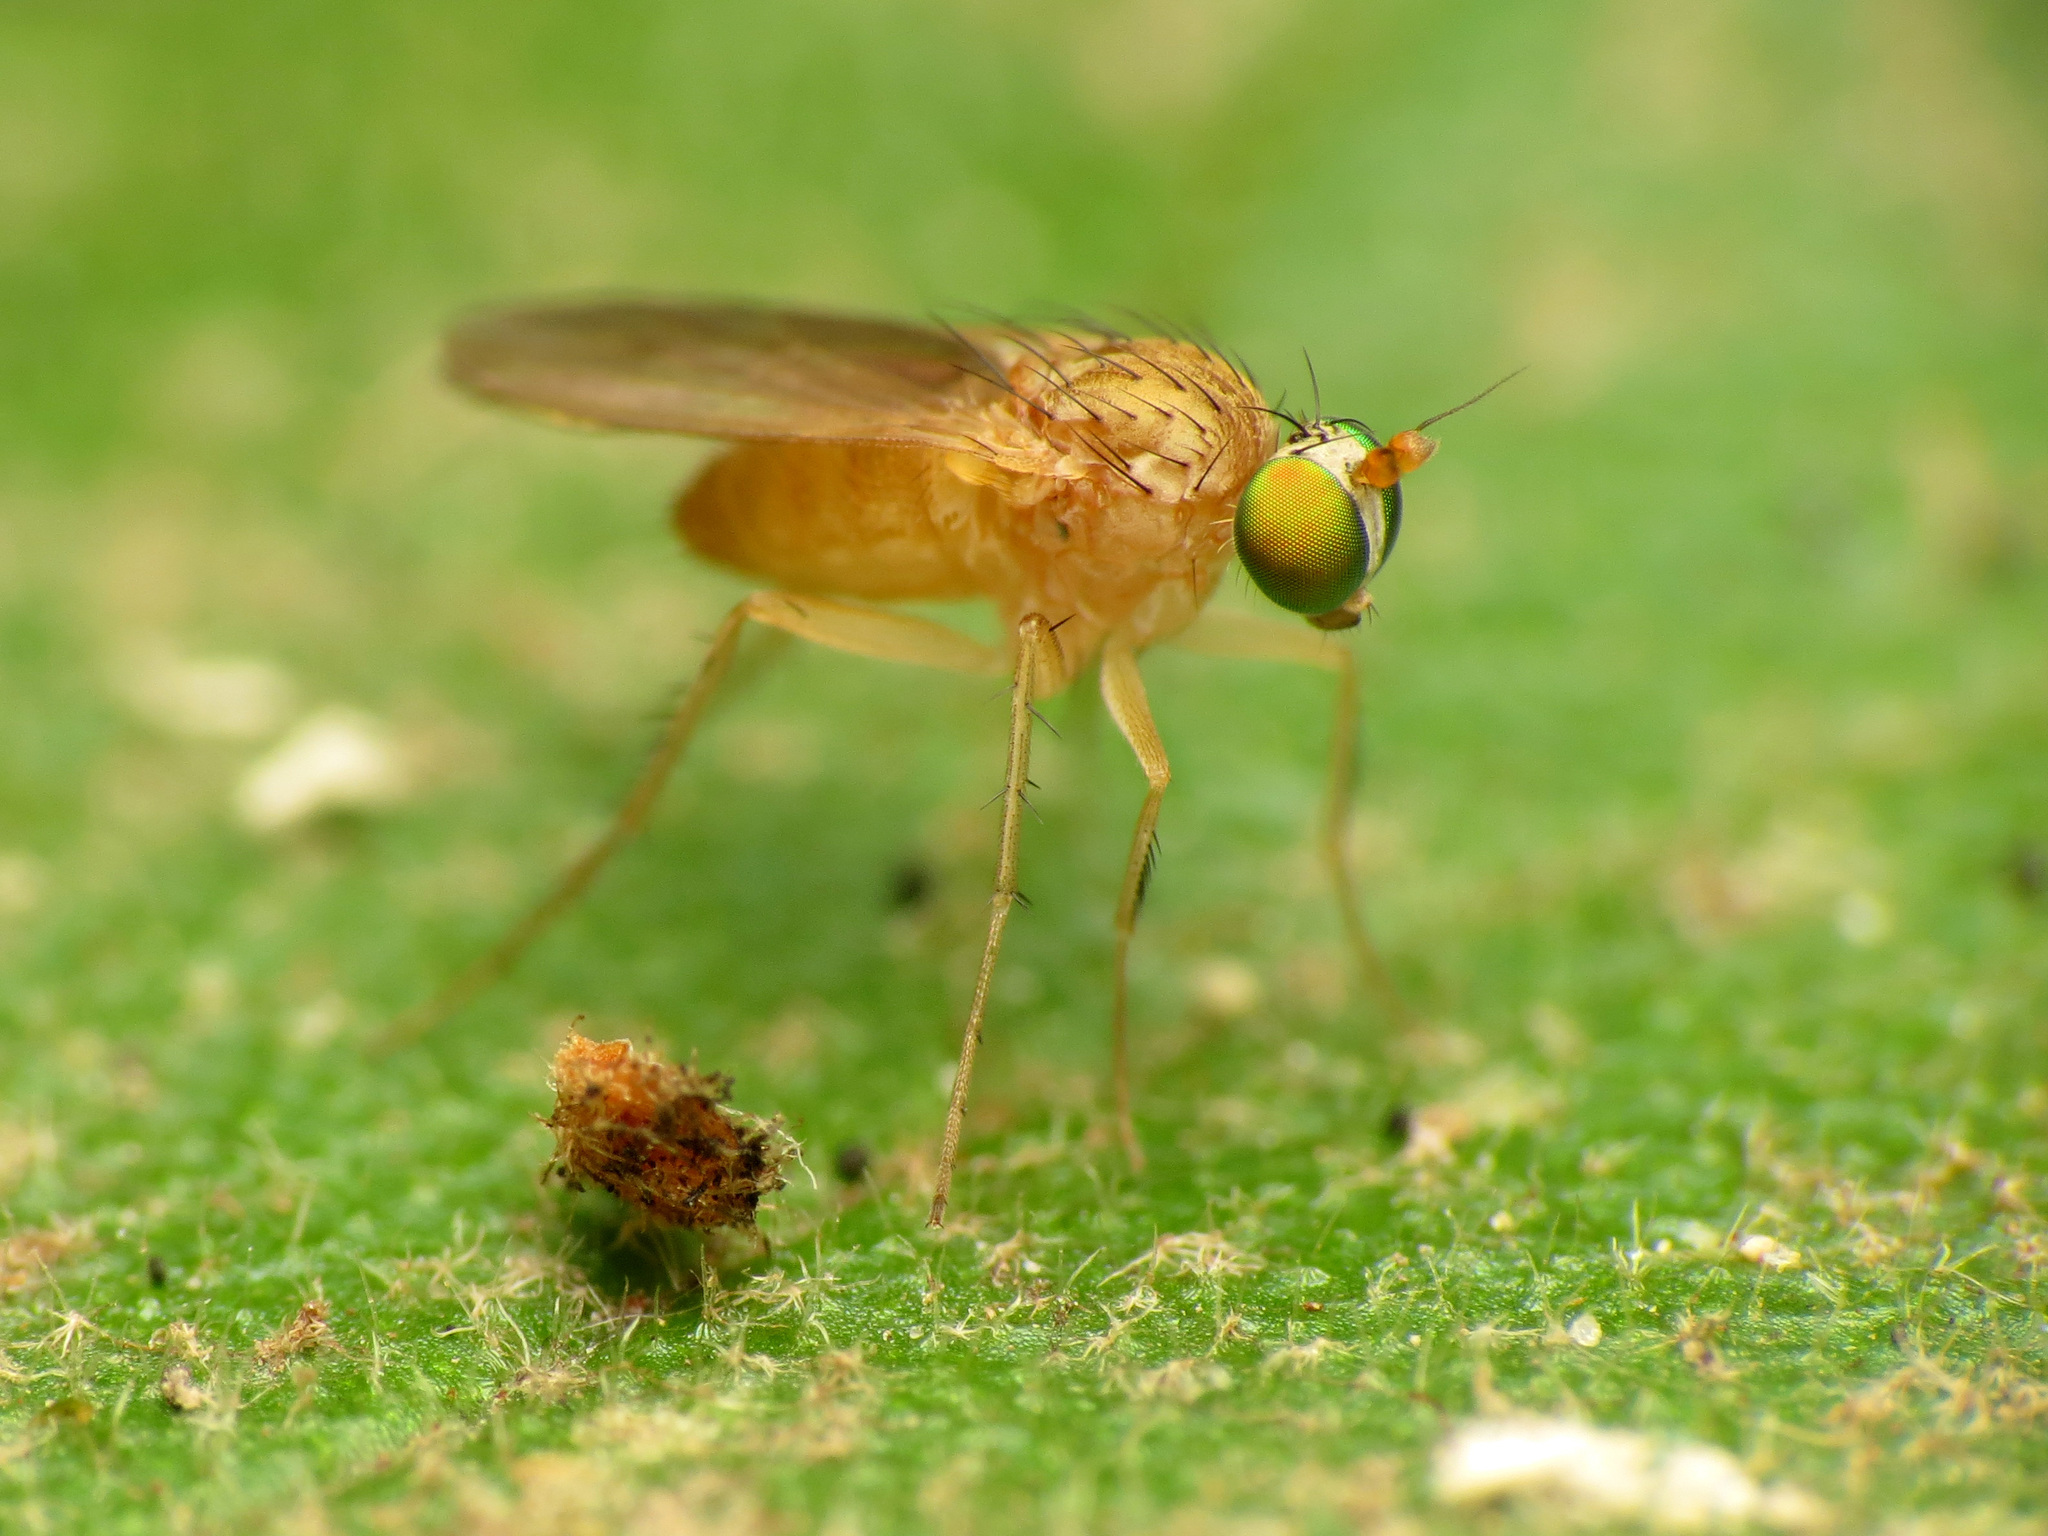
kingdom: Animalia
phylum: Arthropoda
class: Insecta
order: Diptera
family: Dolichopodidae
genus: Gymnopternus
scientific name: Gymnopternus flavus
